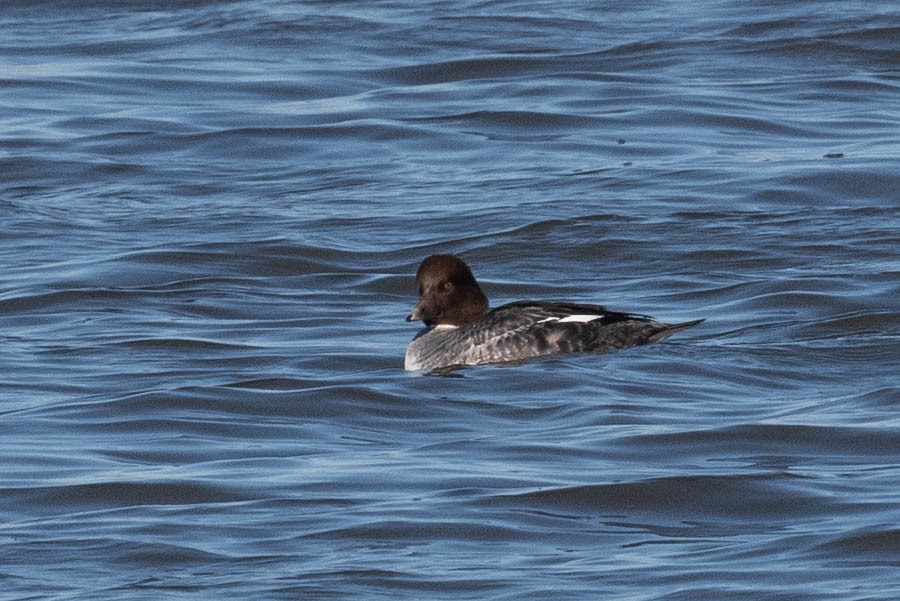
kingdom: Animalia
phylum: Chordata
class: Aves
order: Anseriformes
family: Anatidae
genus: Bucephala
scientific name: Bucephala clangula
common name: Common goldeneye
